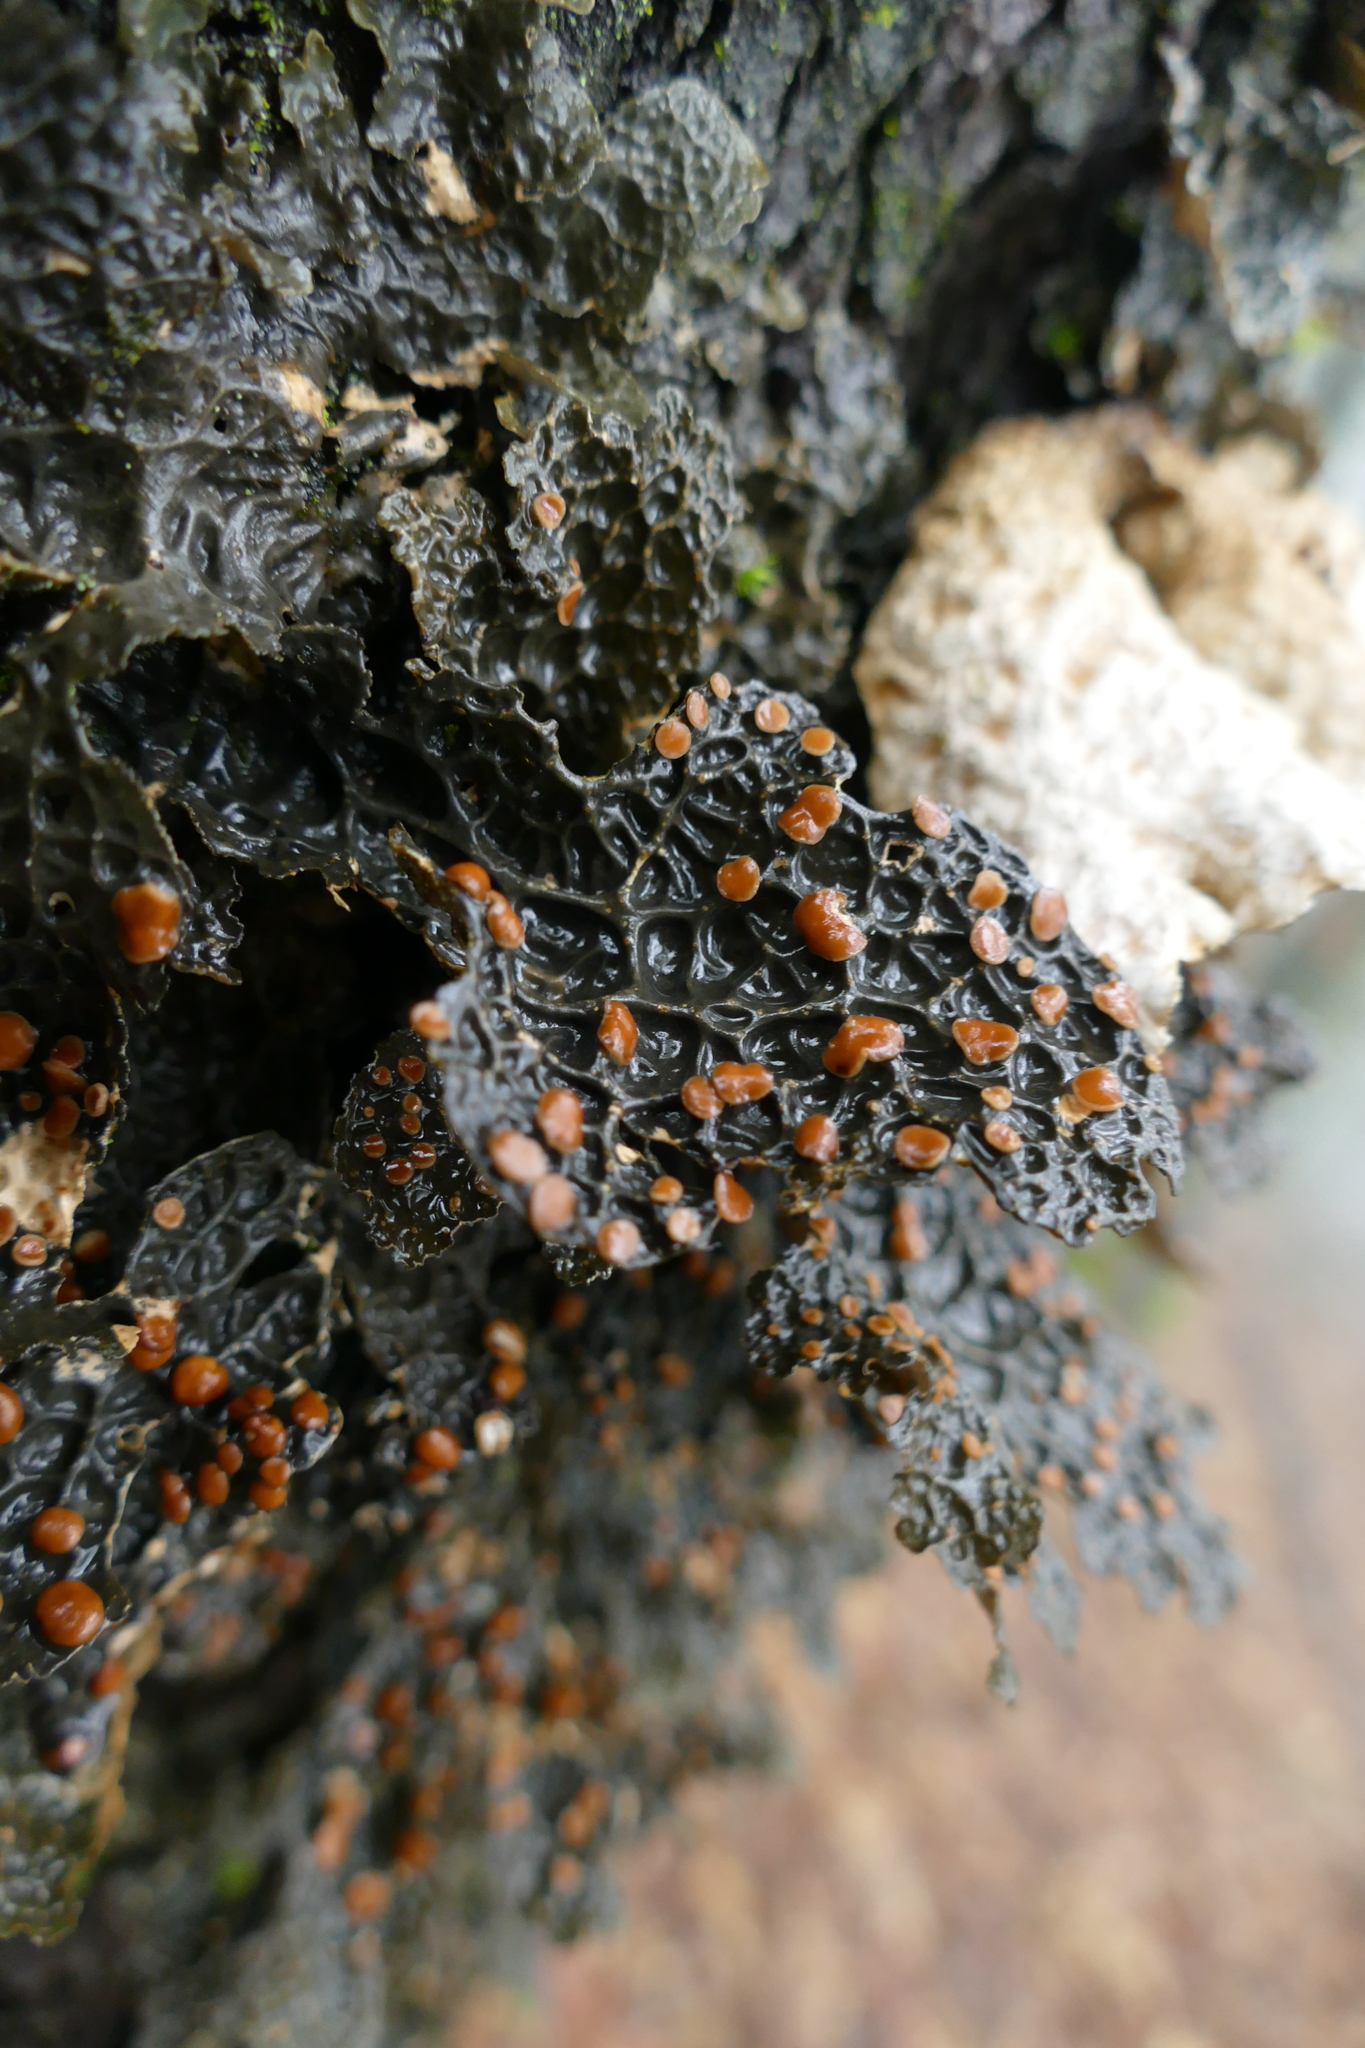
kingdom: Fungi
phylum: Ascomycota
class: Lecanoromycetes
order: Peltigerales
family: Lobariaceae
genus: Lobaria
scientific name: Lobaria anthraspis
